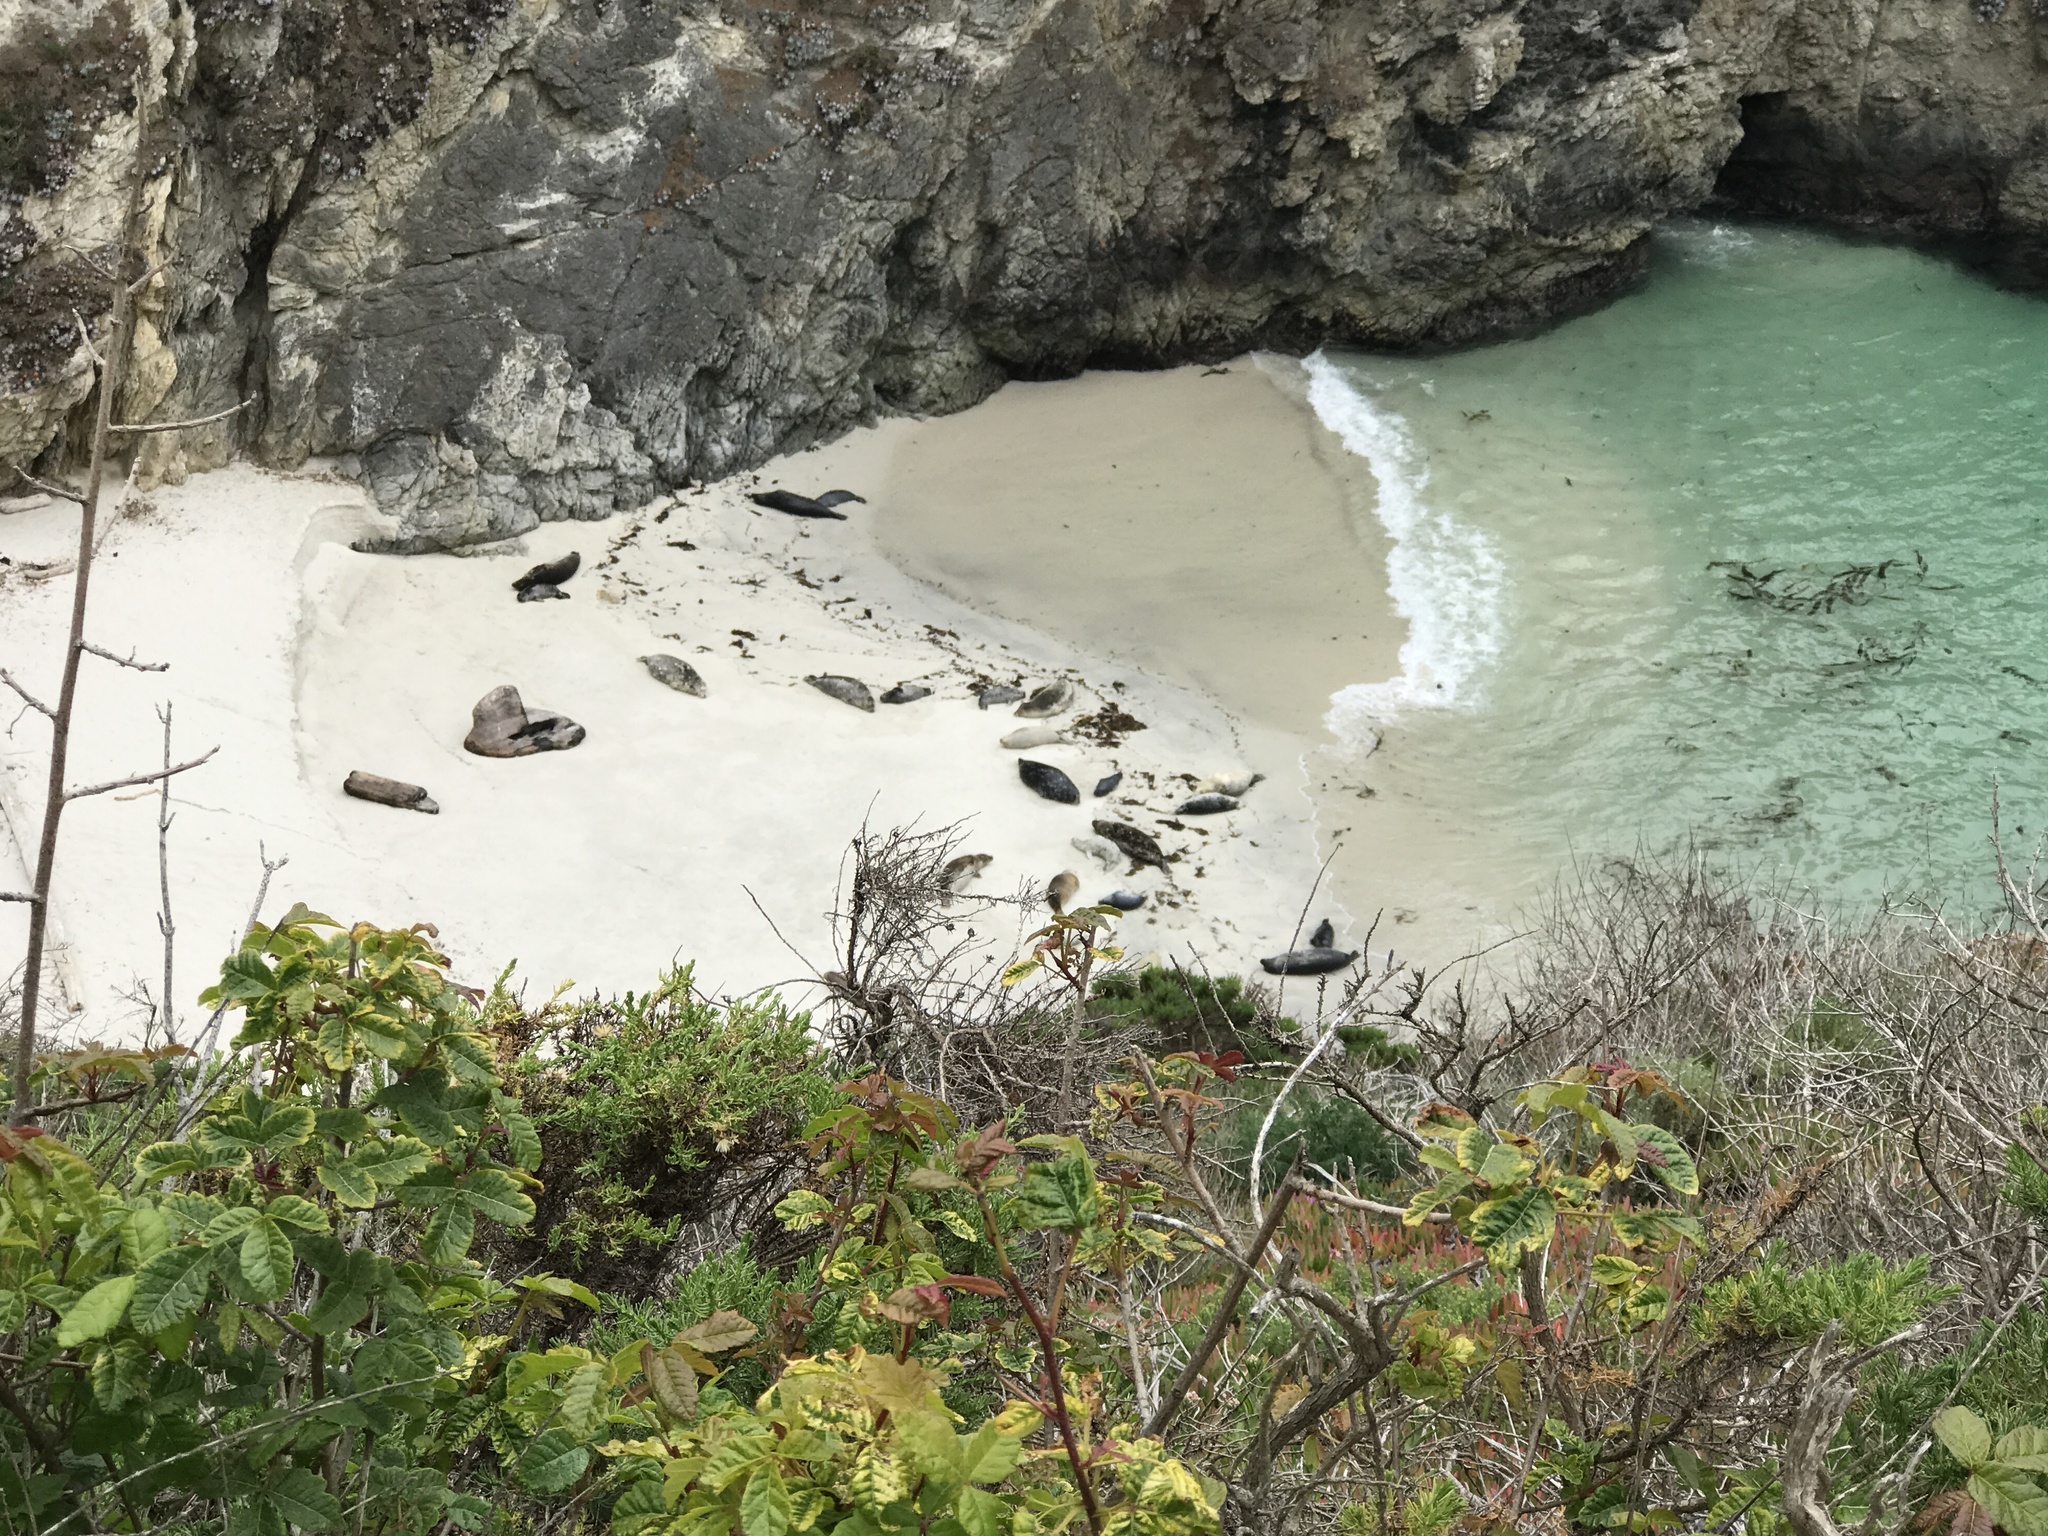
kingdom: Animalia
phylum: Chordata
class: Mammalia
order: Carnivora
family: Phocidae
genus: Phoca
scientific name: Phoca vitulina
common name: Harbor seal
